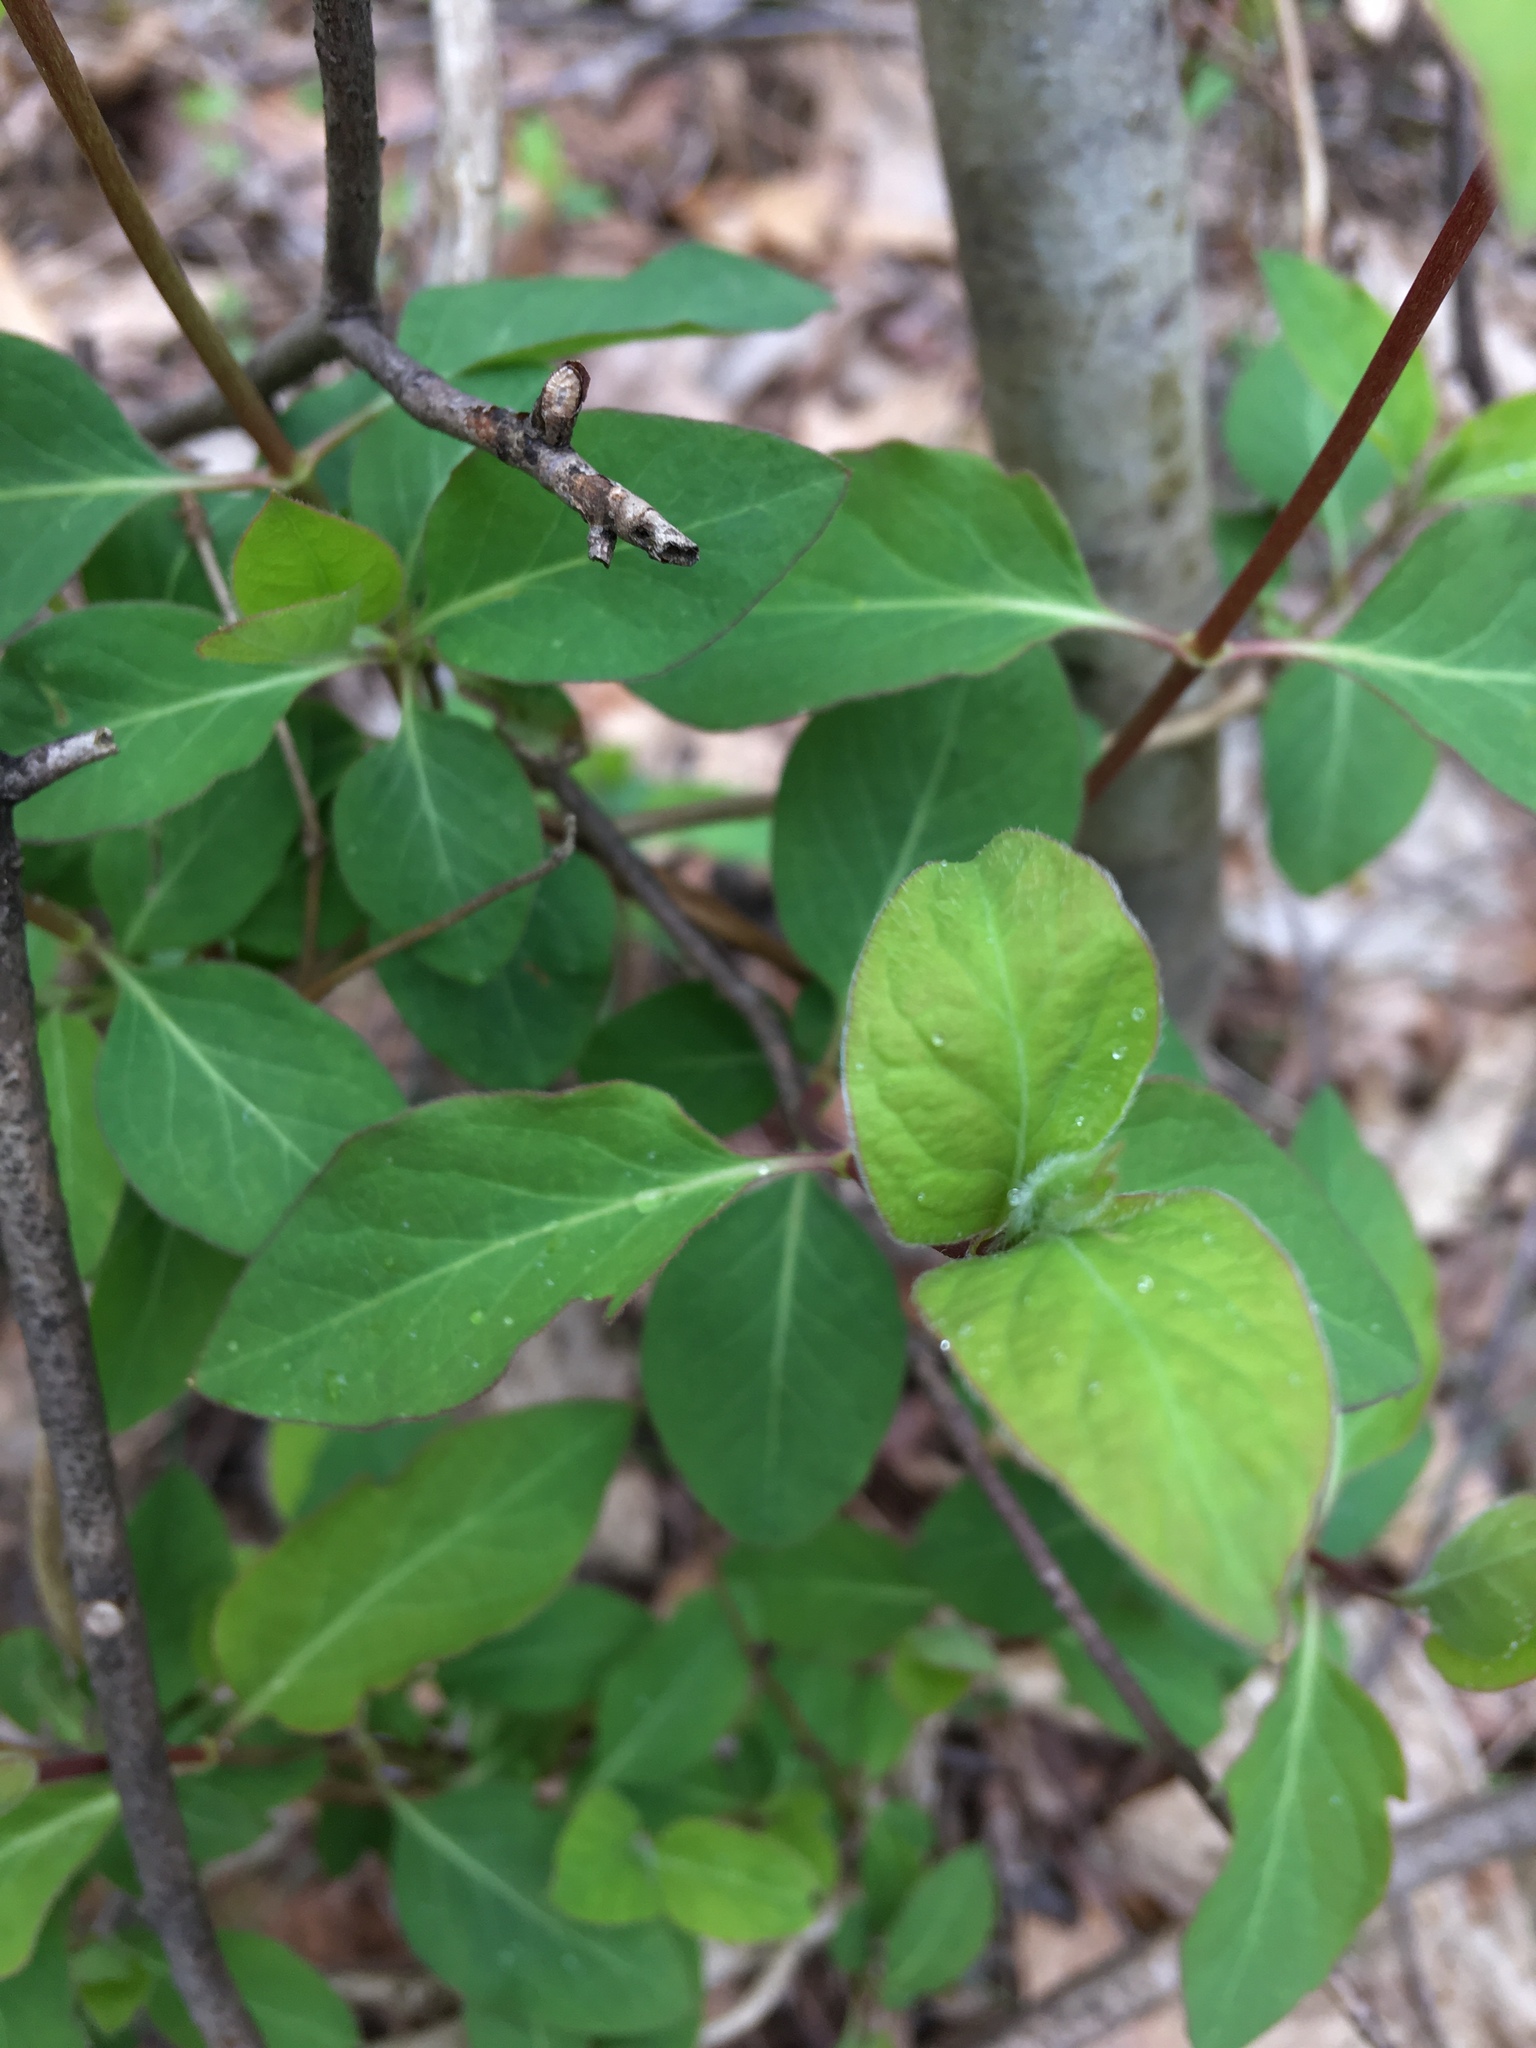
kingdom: Plantae
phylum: Tracheophyta
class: Magnoliopsida
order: Dipsacales
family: Caprifoliaceae
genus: Lonicera
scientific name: Lonicera japonica
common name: Japanese honeysuckle
